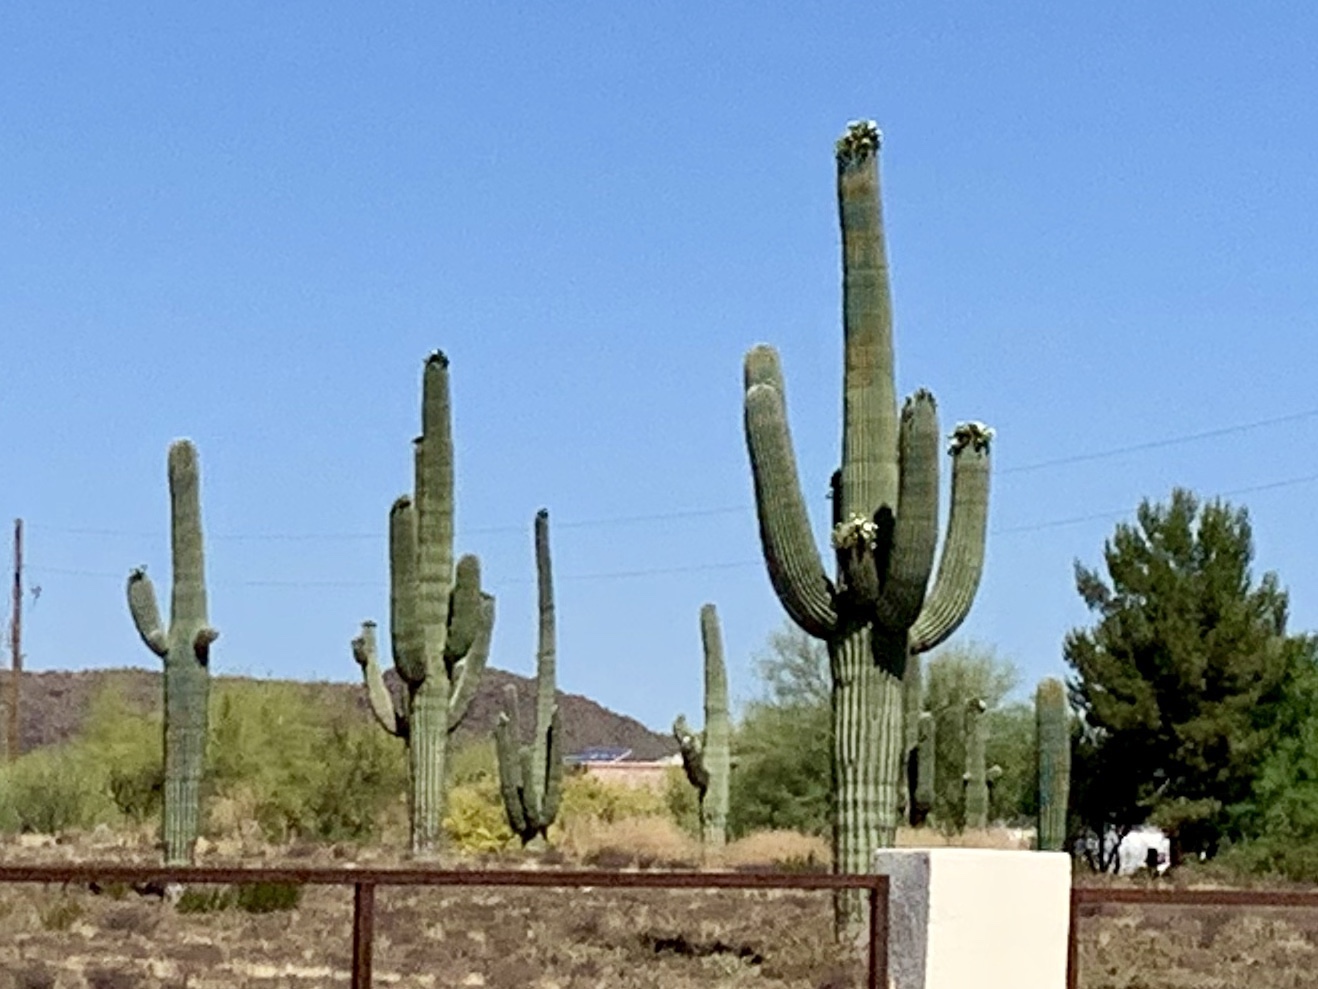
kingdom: Plantae
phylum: Tracheophyta
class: Magnoliopsida
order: Caryophyllales
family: Cactaceae
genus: Carnegiea
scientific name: Carnegiea gigantea
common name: Saguaro
